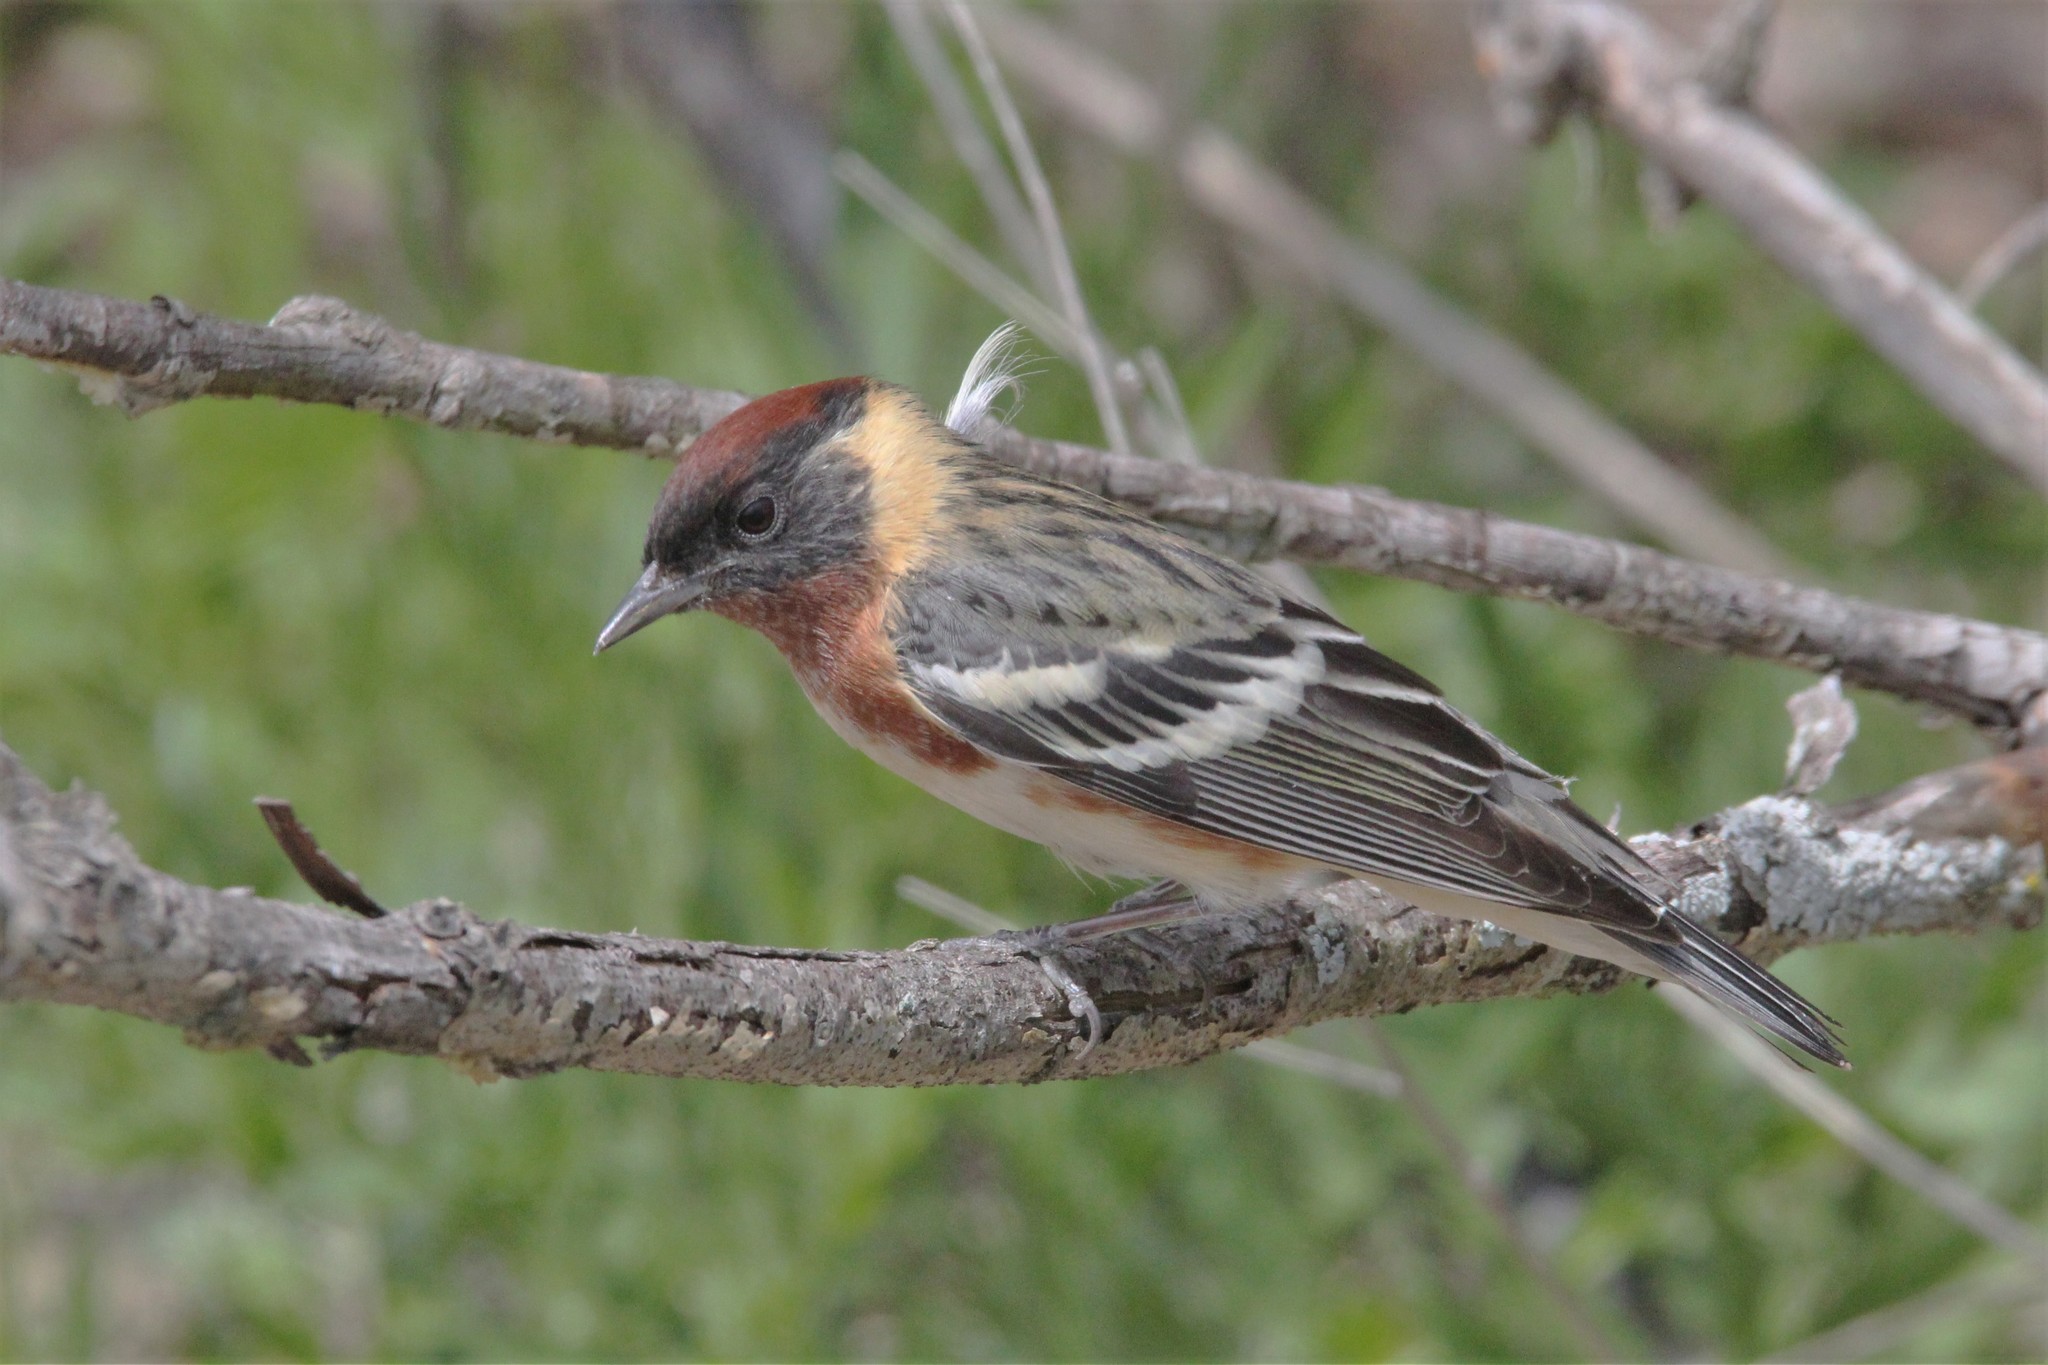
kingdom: Animalia
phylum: Chordata
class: Aves
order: Passeriformes
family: Parulidae
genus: Setophaga
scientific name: Setophaga castanea
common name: Bay-breasted warbler
